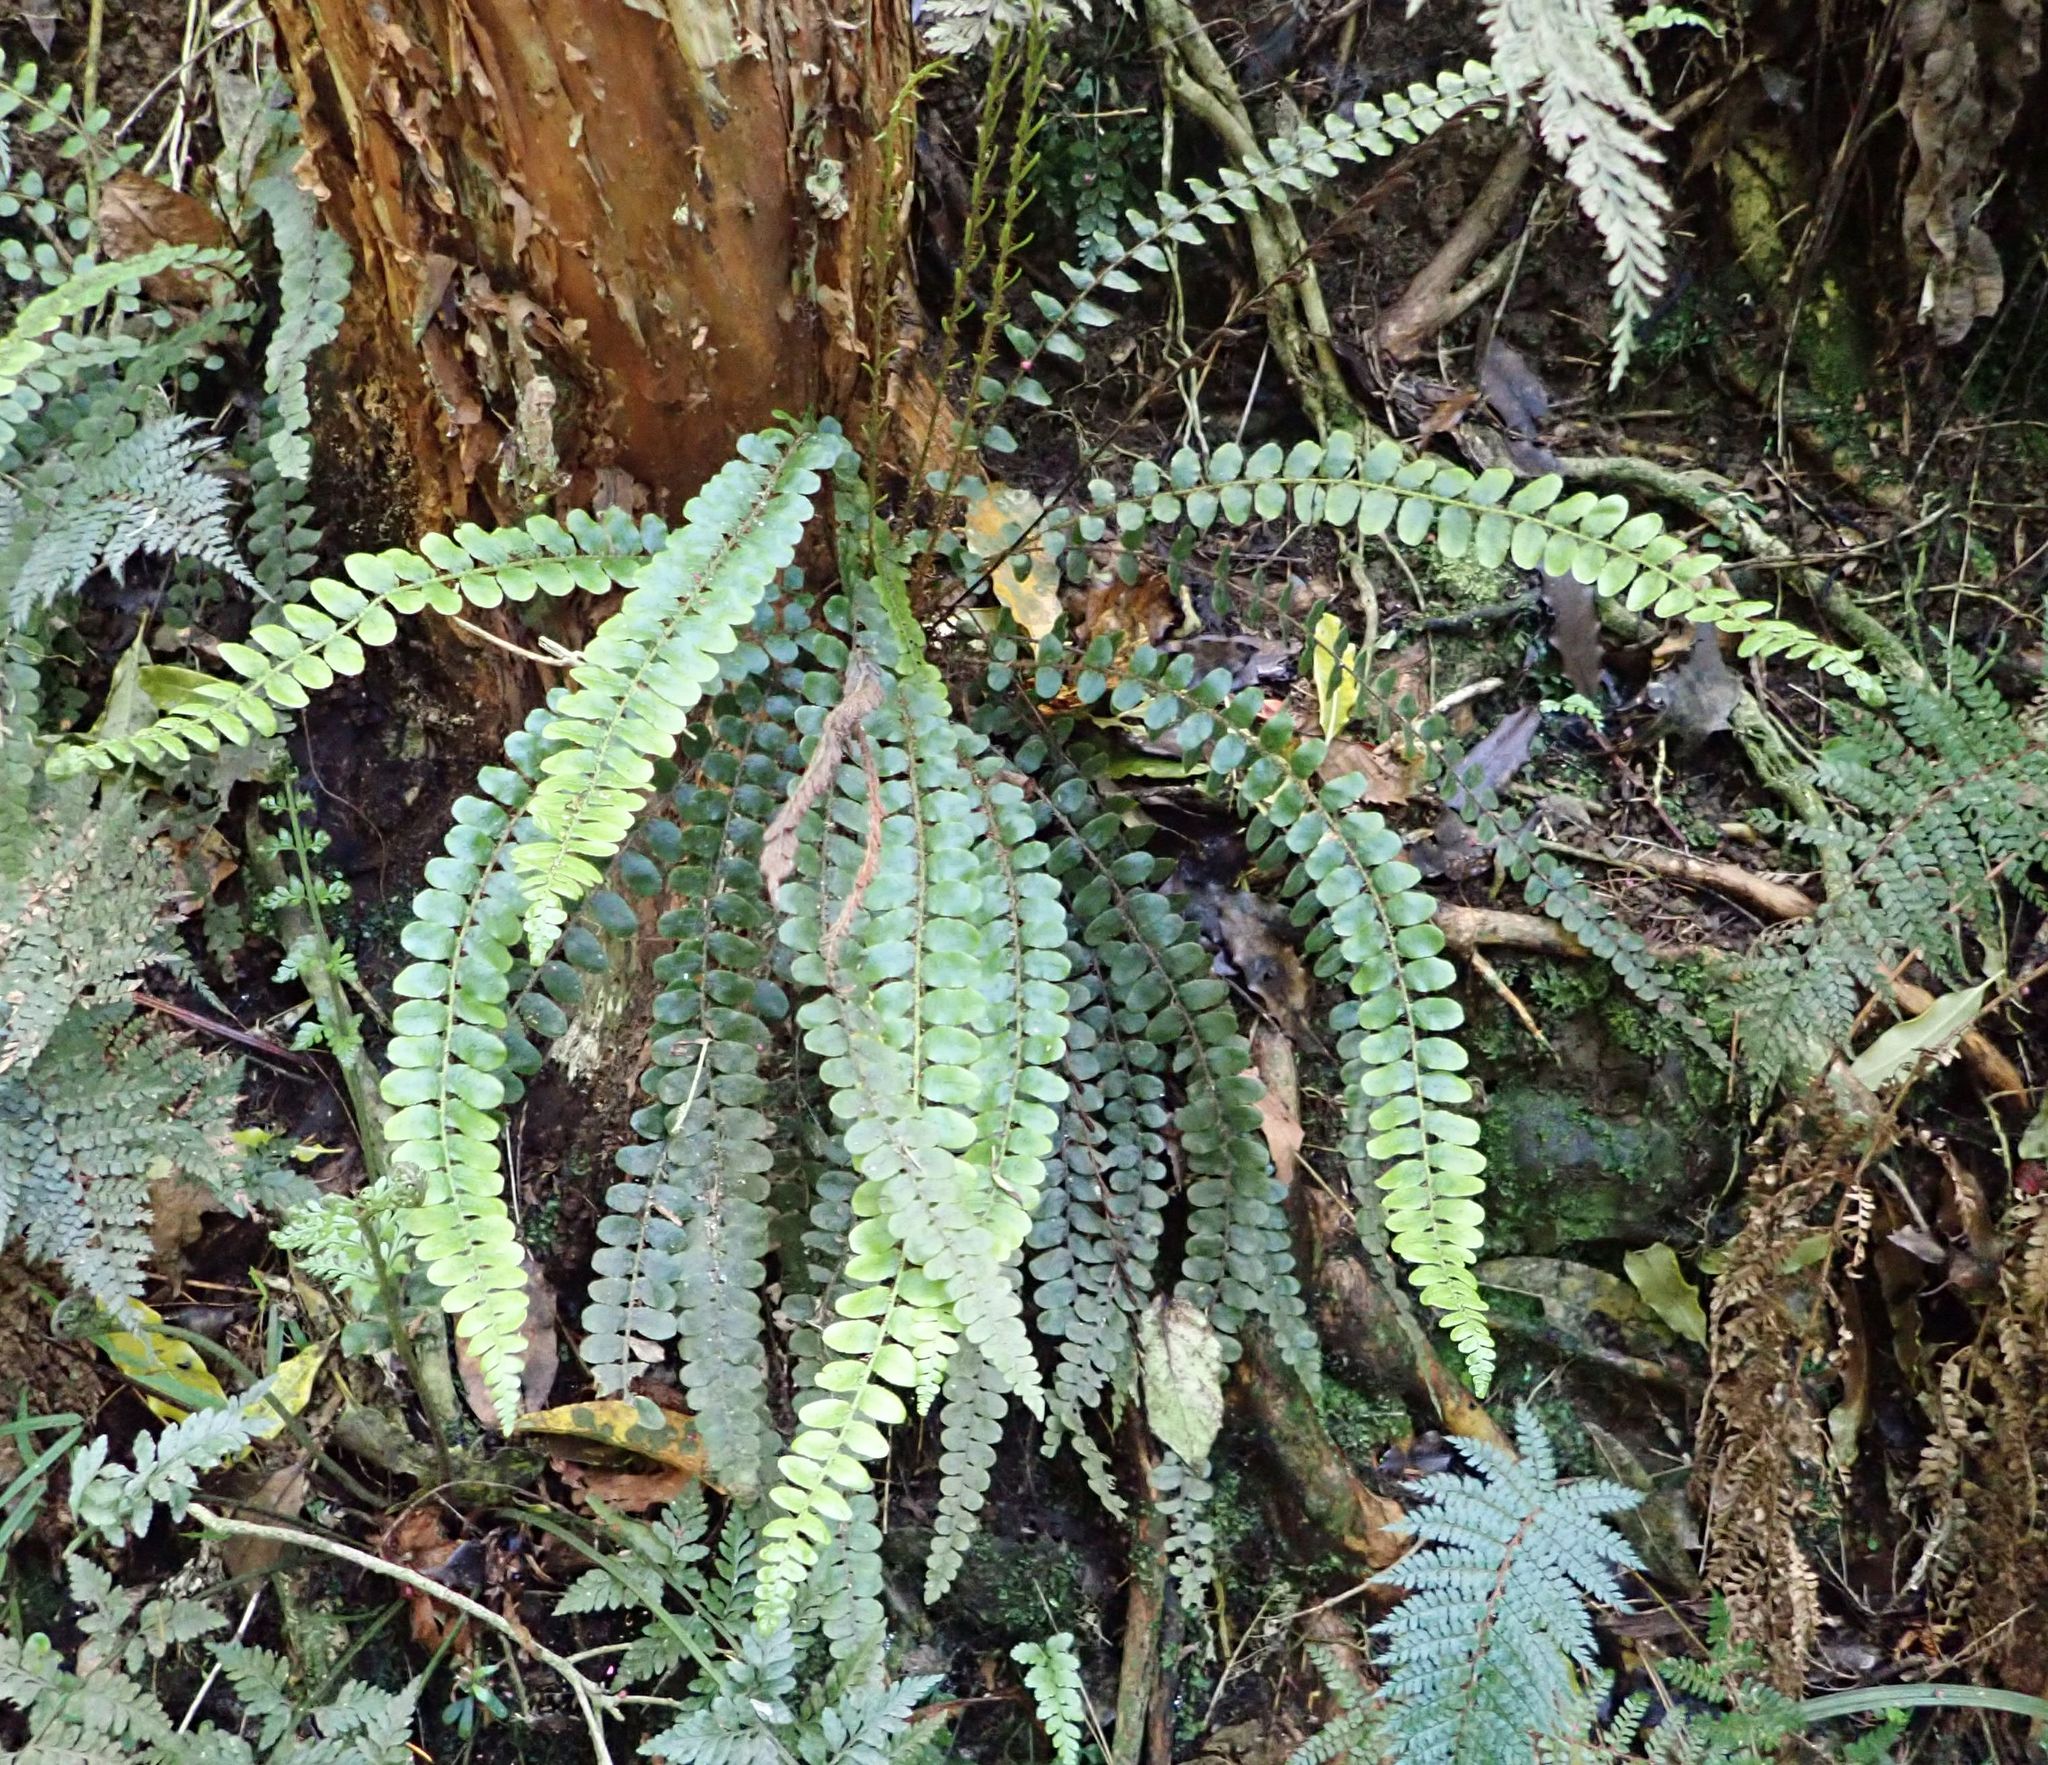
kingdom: Plantae
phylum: Tracheophyta
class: Polypodiopsida
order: Polypodiales
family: Blechnaceae
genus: Cranfillia
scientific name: Cranfillia fluviatilis
